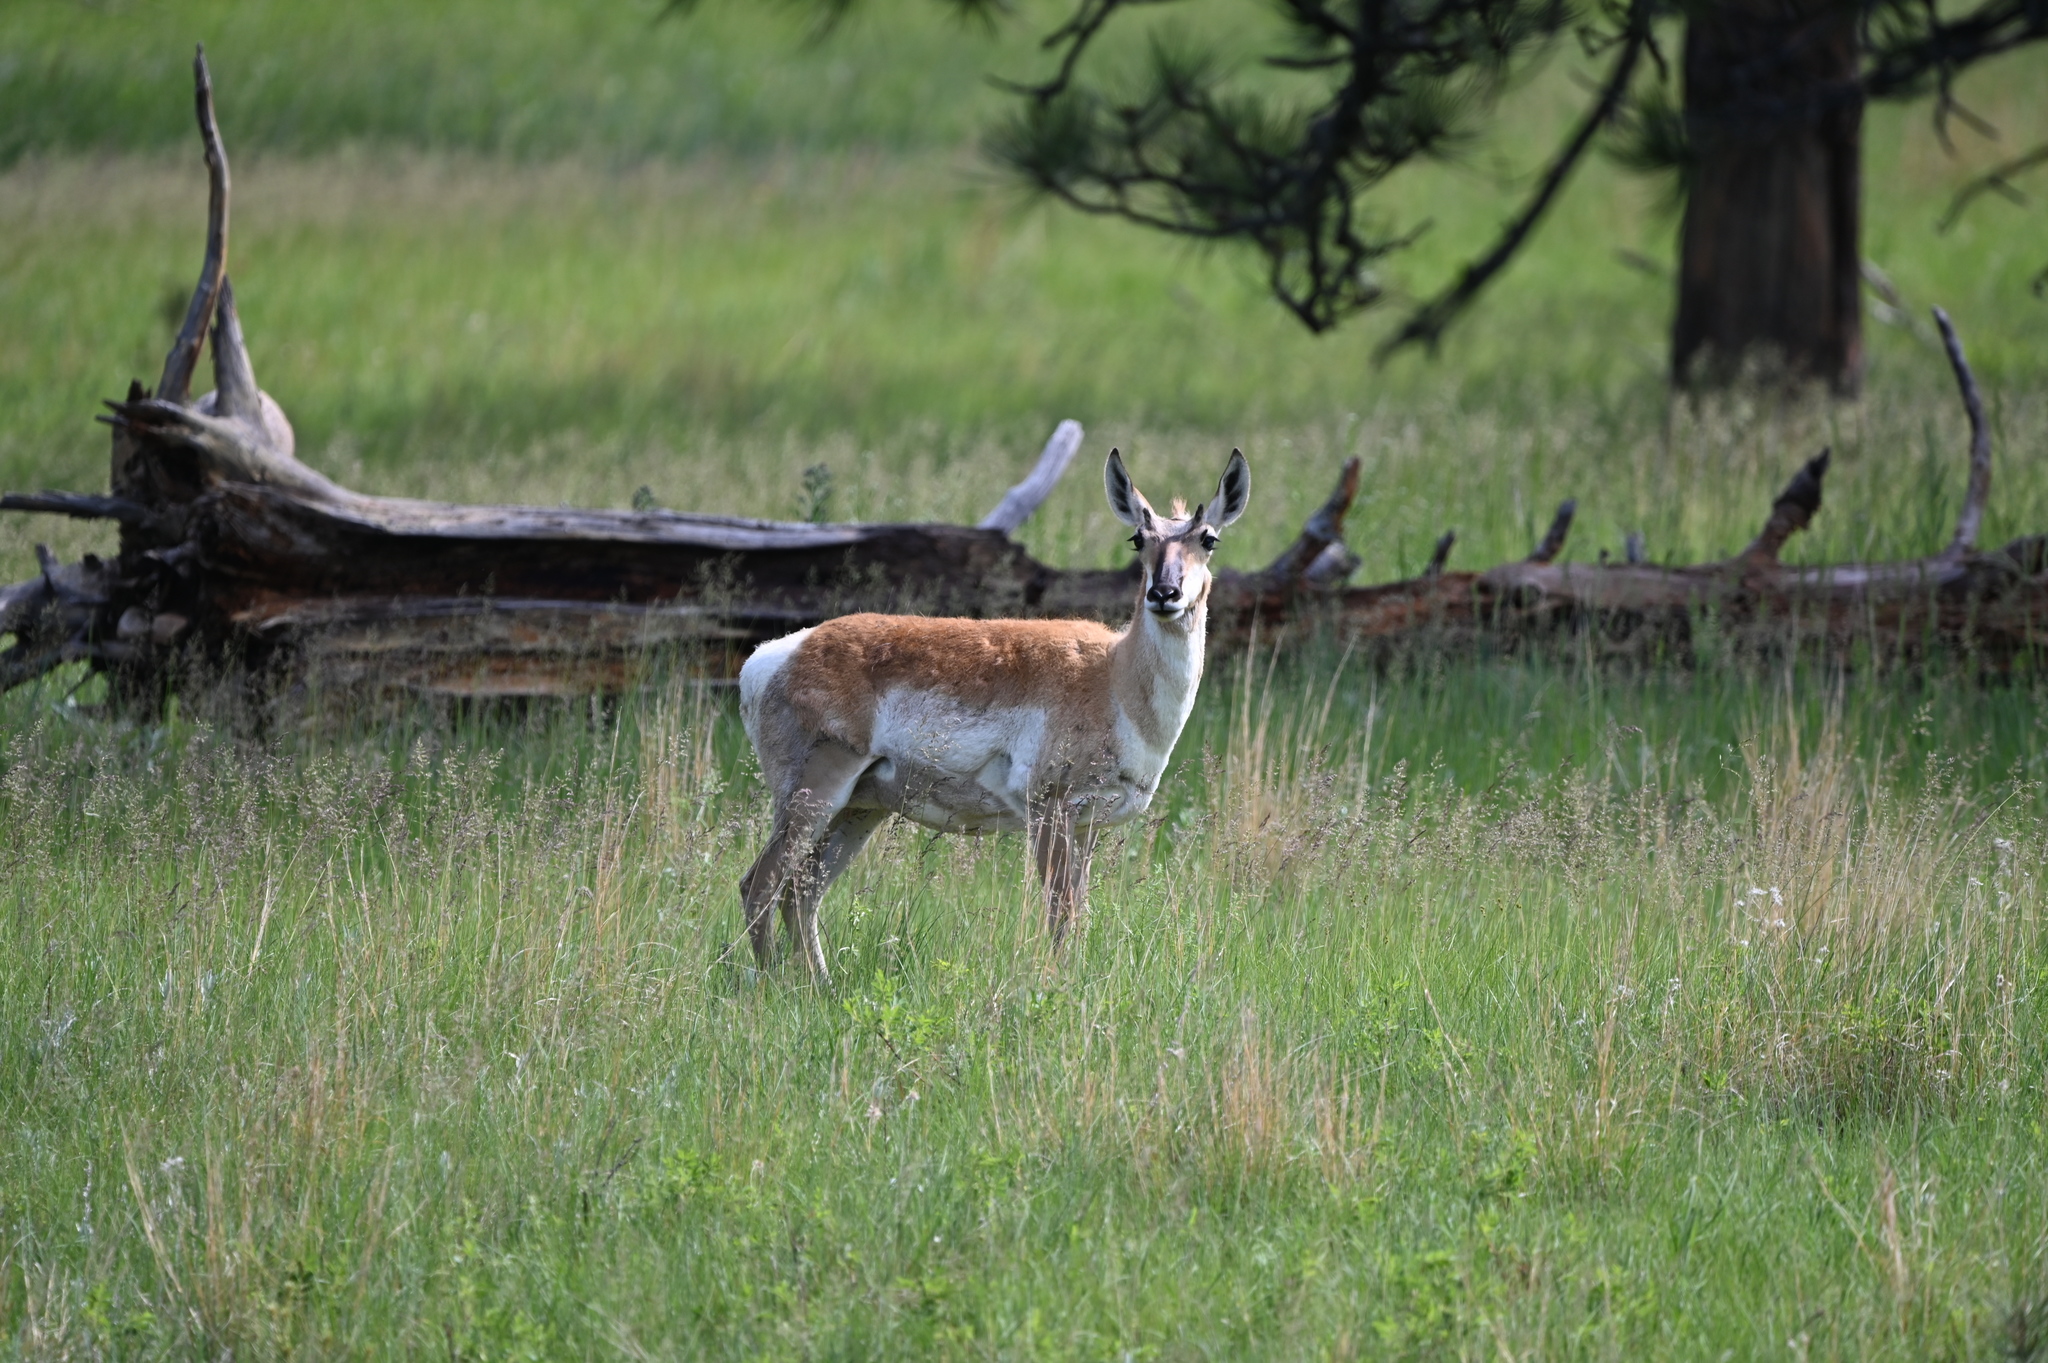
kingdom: Animalia
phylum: Chordata
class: Mammalia
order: Artiodactyla
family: Antilocapridae
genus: Antilocapra
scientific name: Antilocapra americana
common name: Pronghorn
